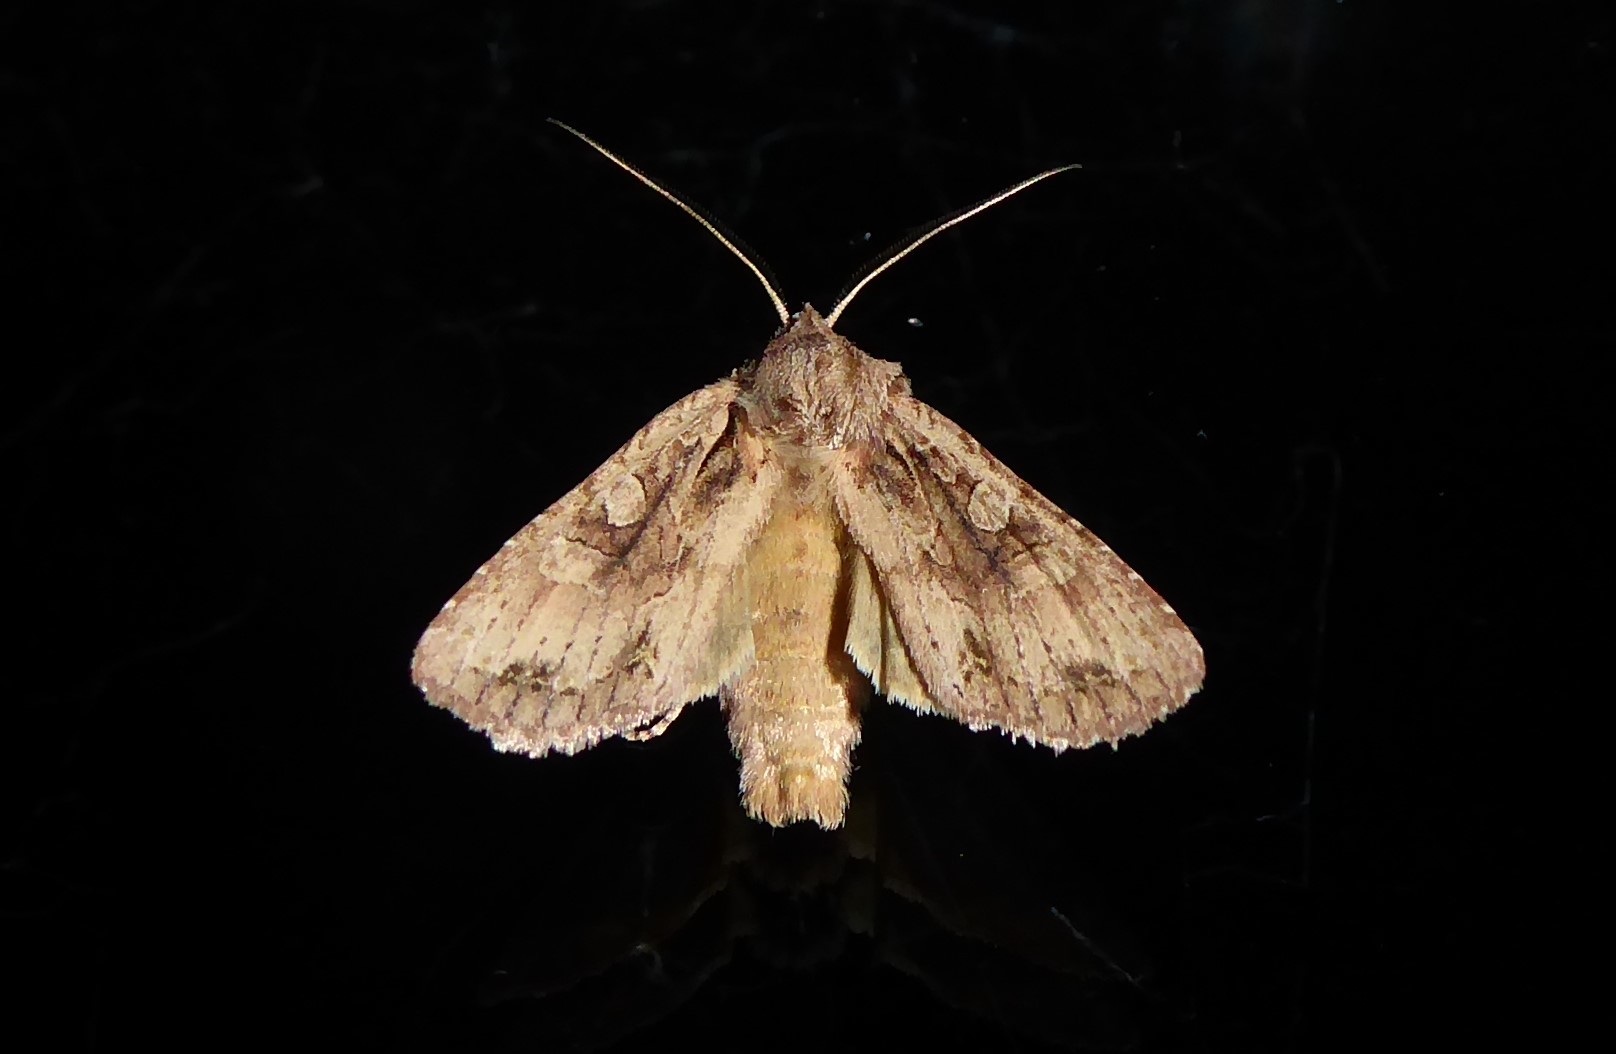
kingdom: Animalia
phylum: Arthropoda
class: Insecta
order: Lepidoptera
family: Noctuidae
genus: Ichneutica
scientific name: Ichneutica
